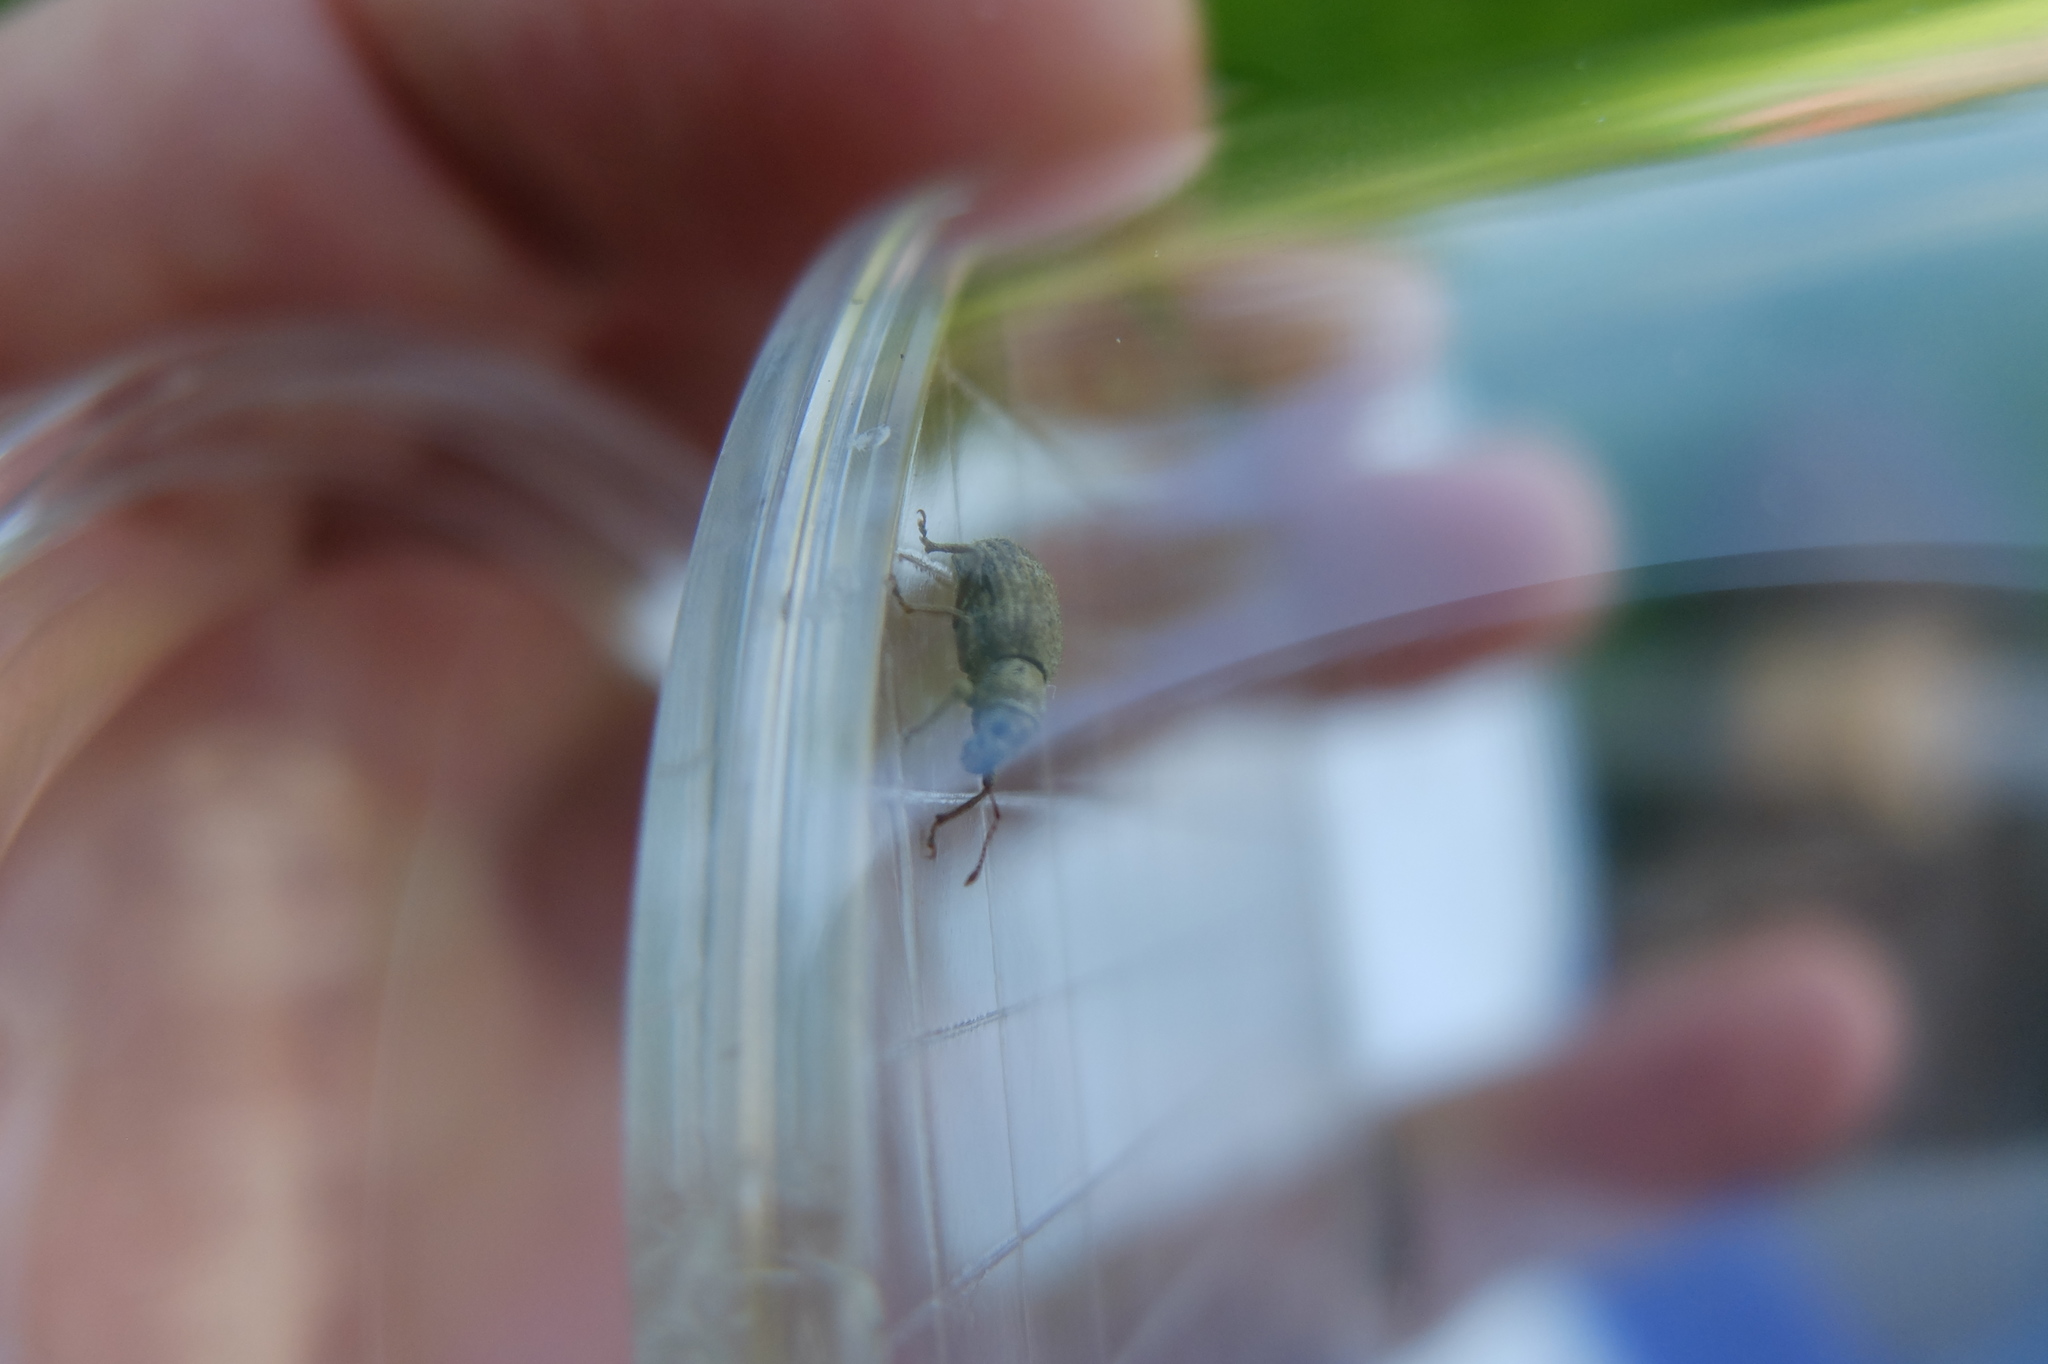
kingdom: Animalia
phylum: Arthropoda
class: Insecta
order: Coleoptera
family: Curculionidae
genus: Sciaphilus
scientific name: Sciaphilus asperatus
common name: Weevil
